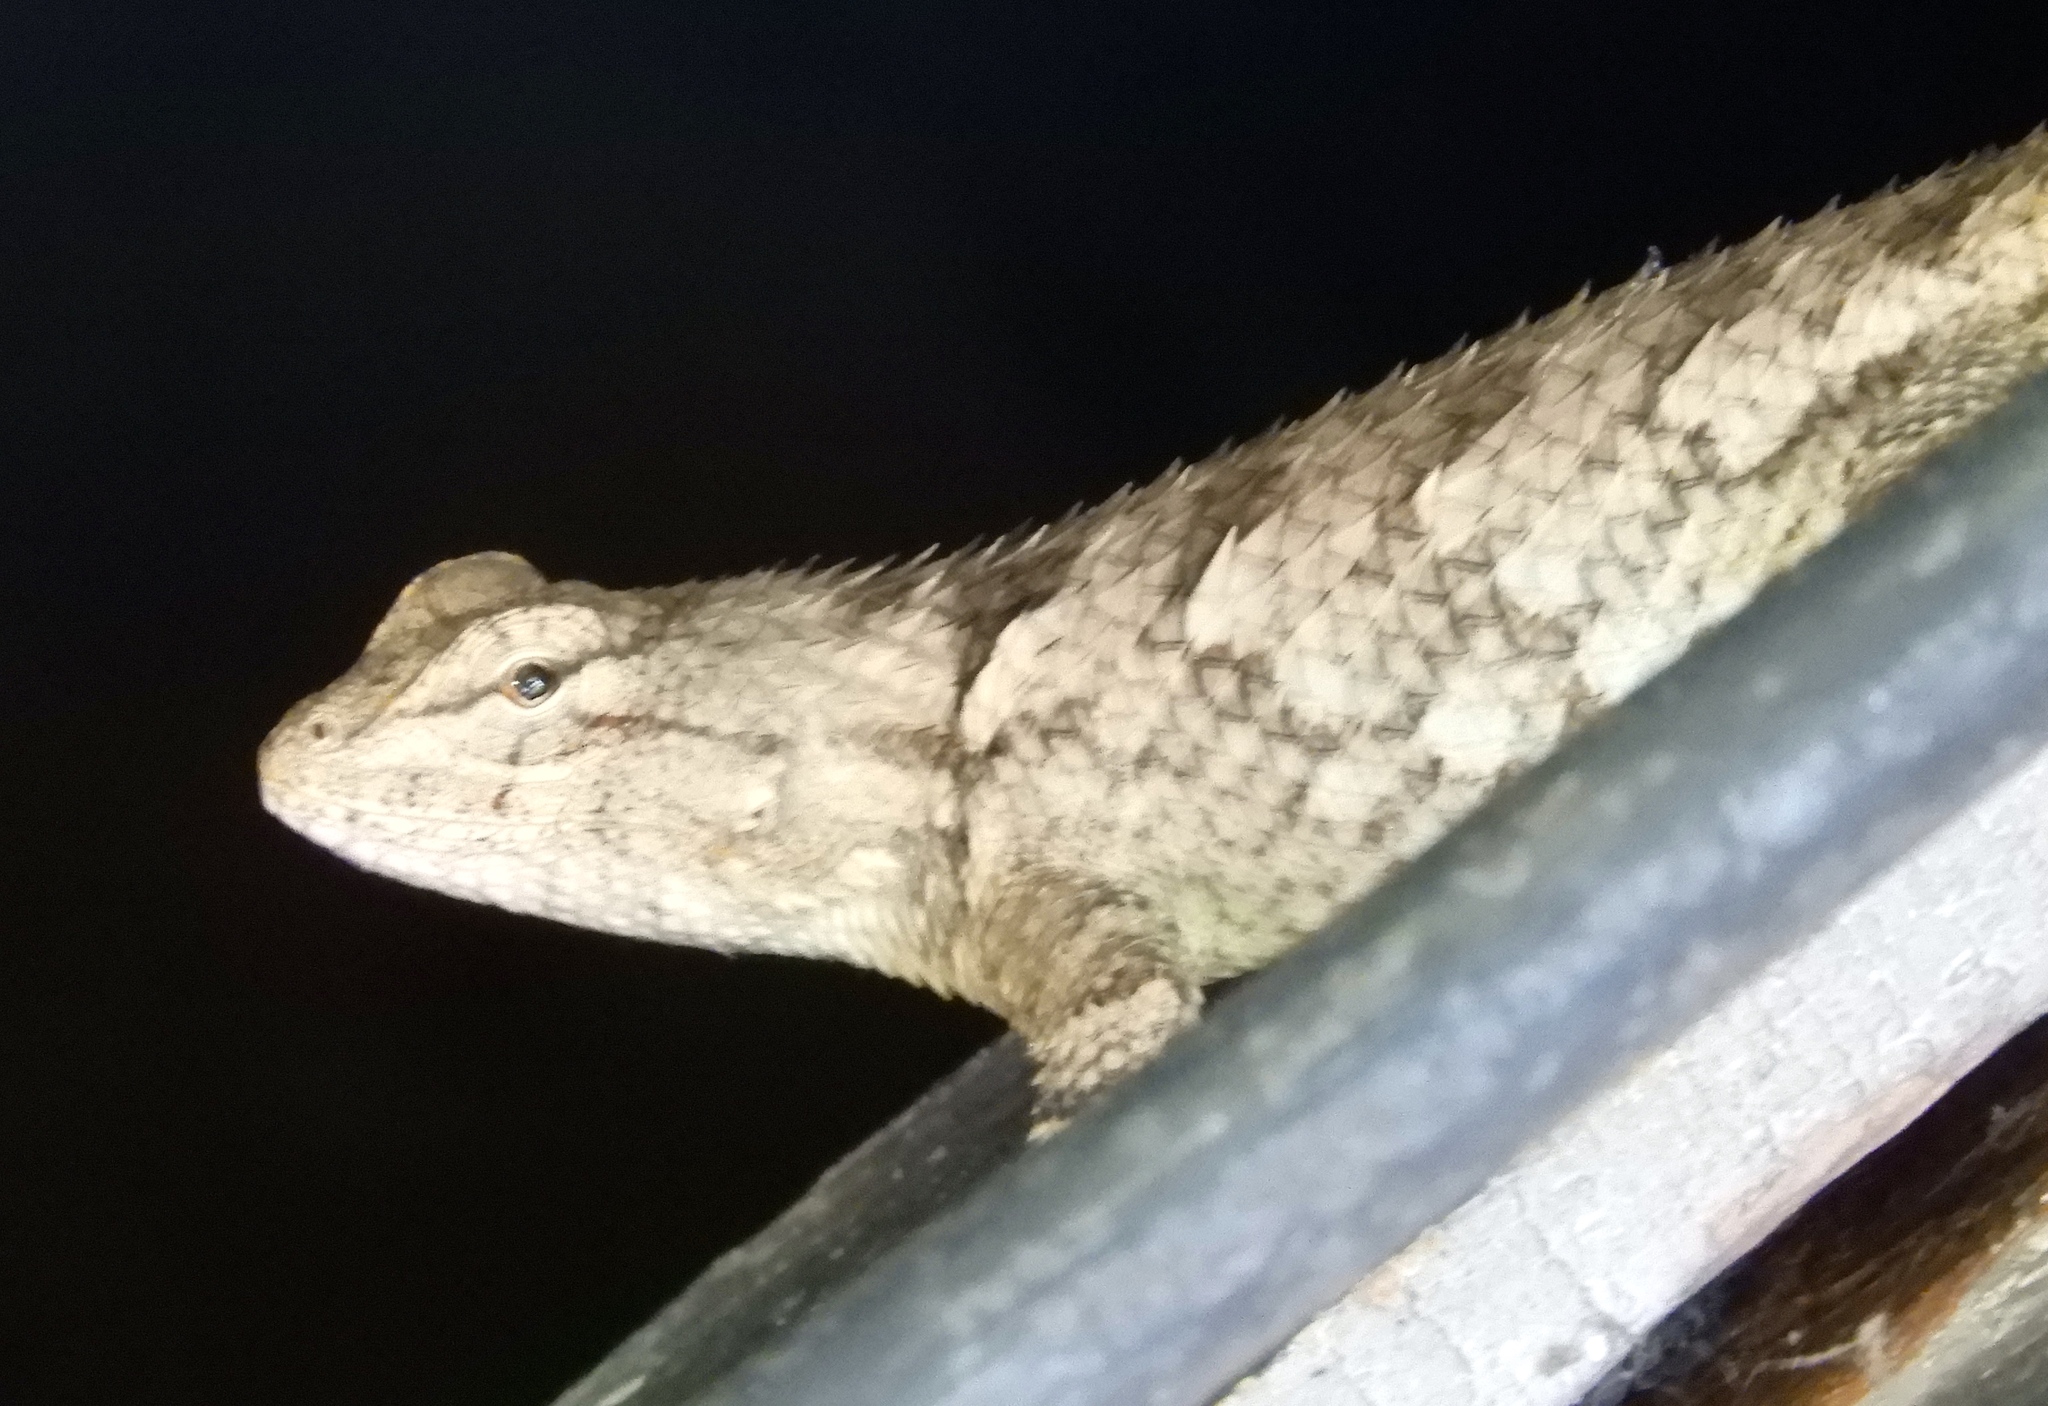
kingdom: Animalia
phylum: Chordata
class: Squamata
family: Phrynosomatidae
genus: Sceloporus
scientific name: Sceloporus clarkii
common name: Clark's spiny lizard
